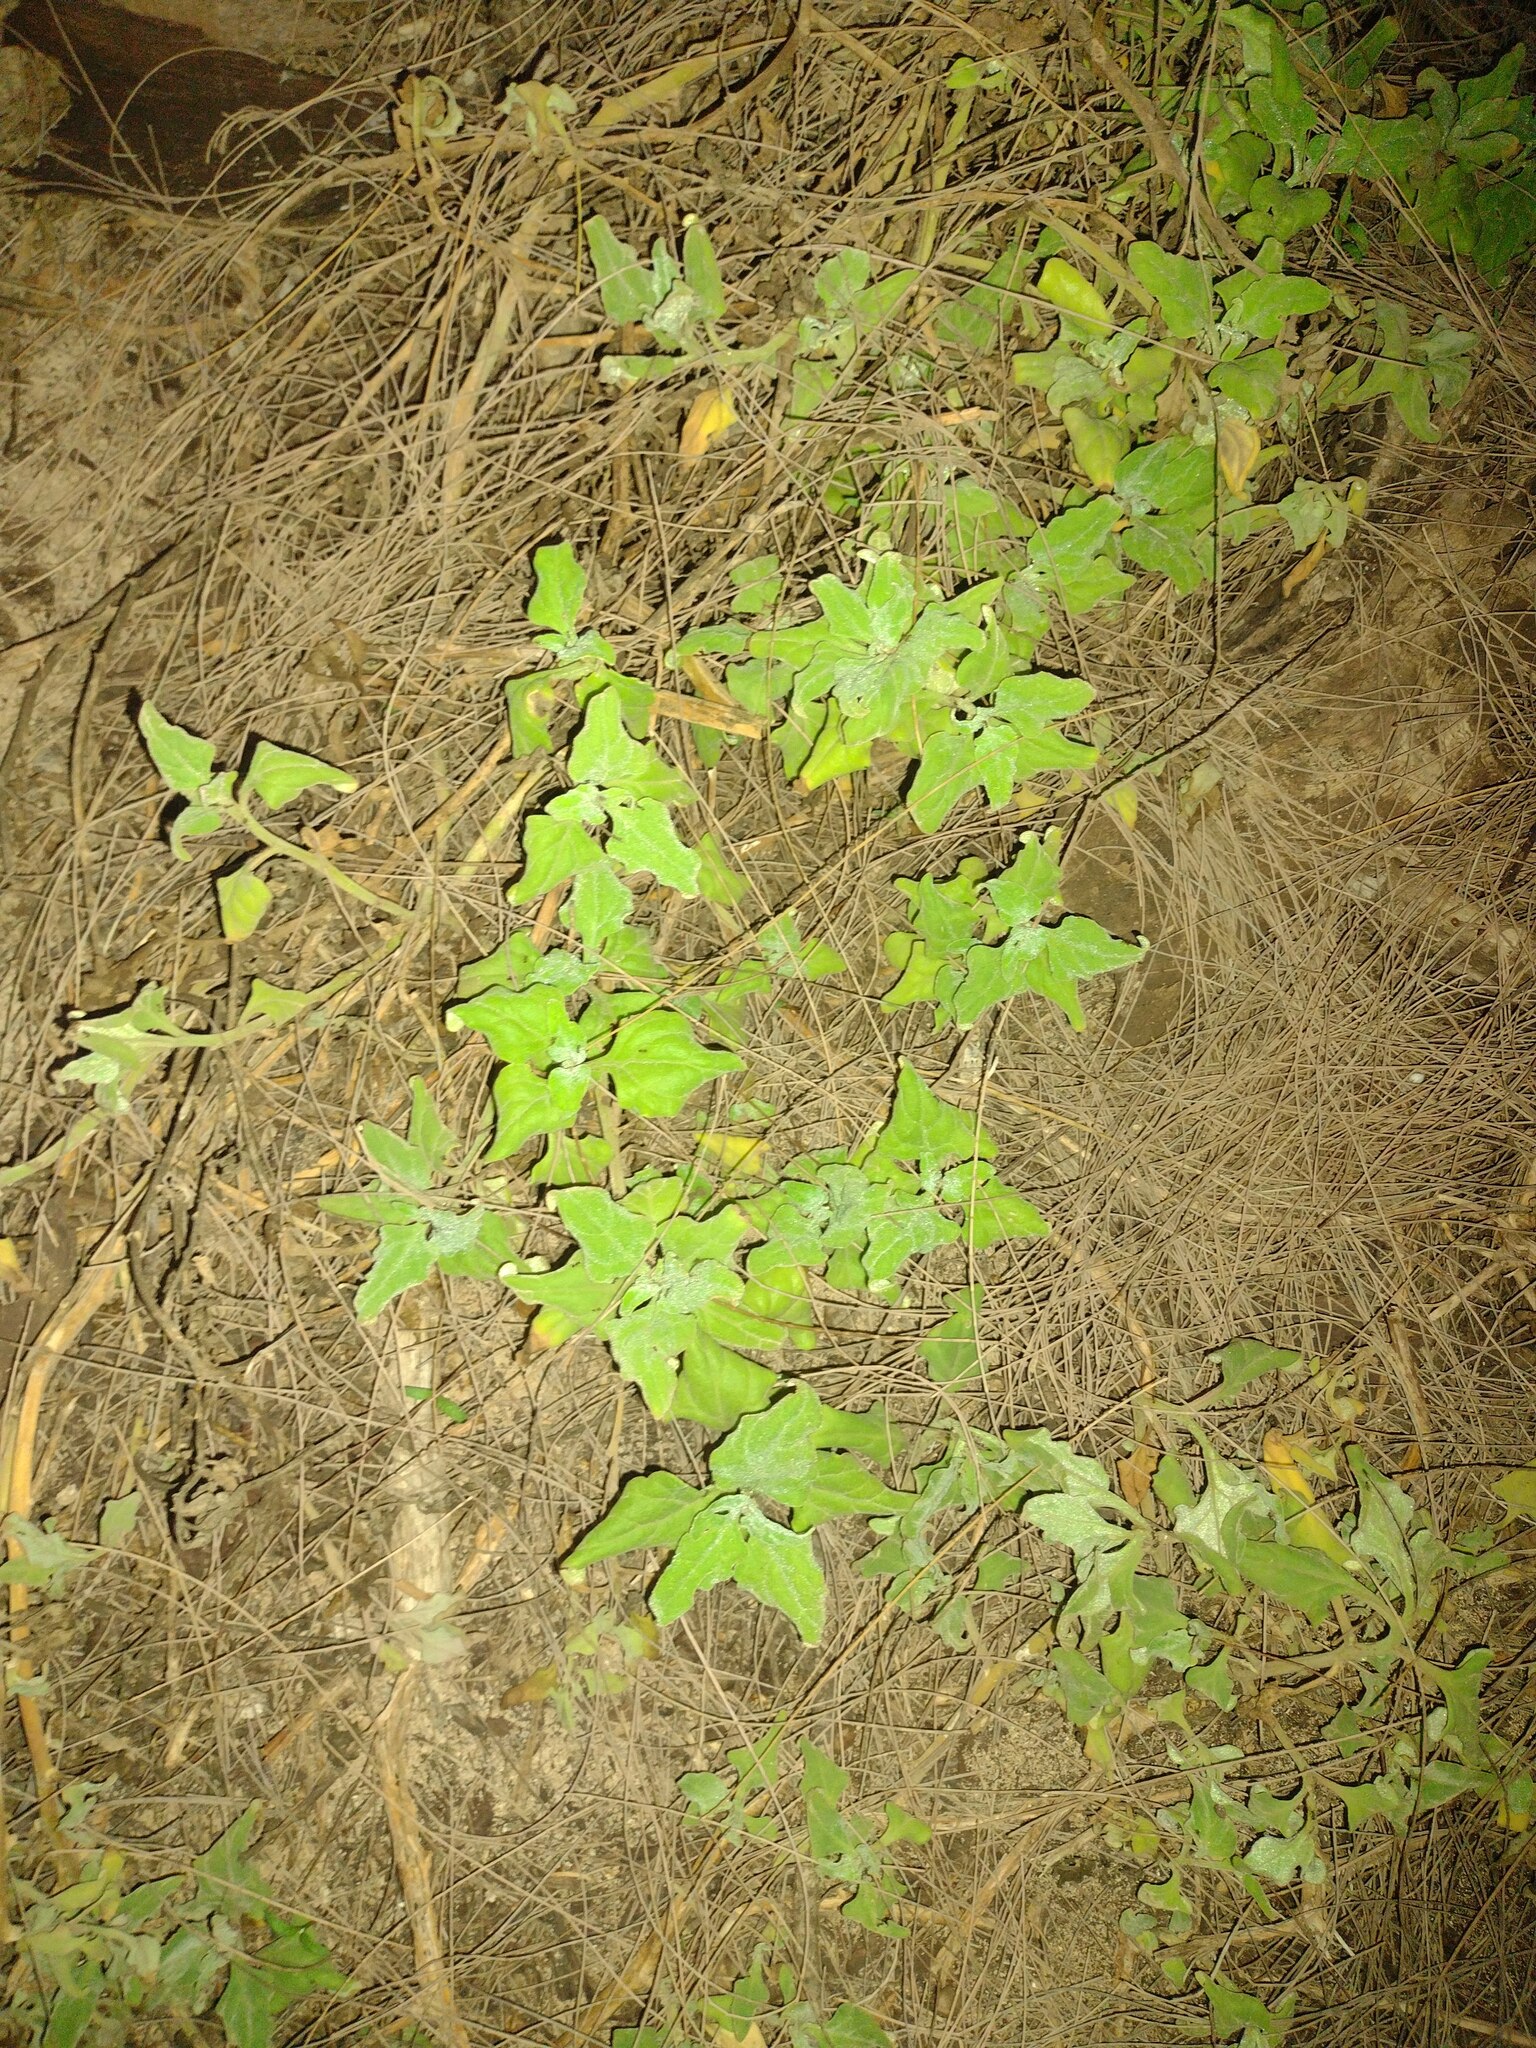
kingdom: Plantae
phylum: Tracheophyta
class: Magnoliopsida
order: Caryophyllales
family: Aizoaceae
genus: Tetragonia
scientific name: Tetragonia tetragonoides
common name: New zealand-spinach
